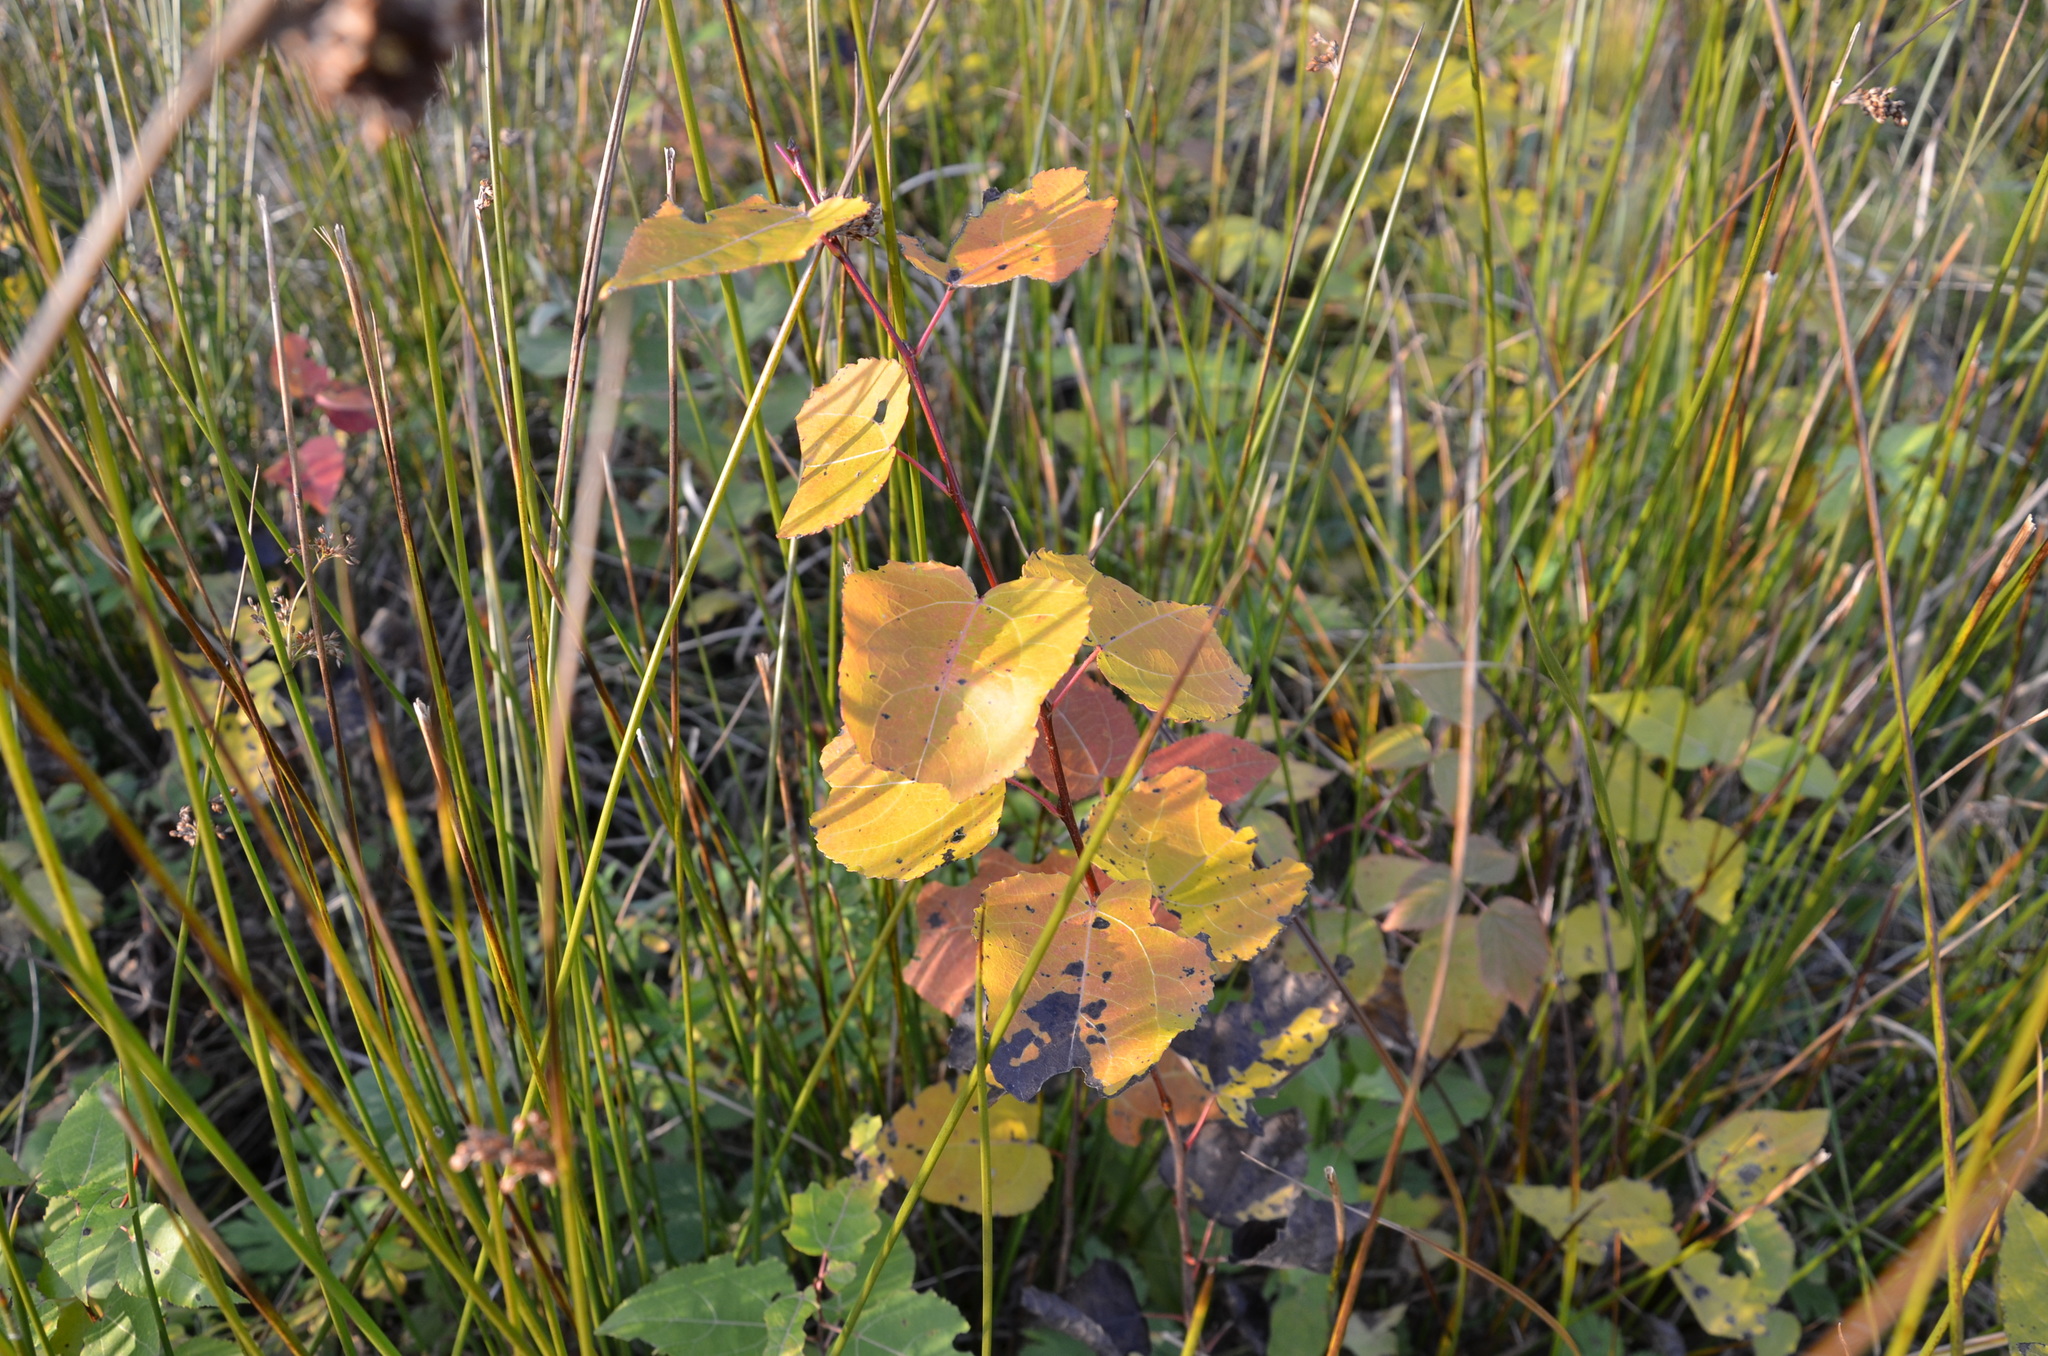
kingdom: Plantae
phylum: Tracheophyta
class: Magnoliopsida
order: Malpighiales
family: Salicaceae
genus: Populus
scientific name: Populus tremula
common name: European aspen
